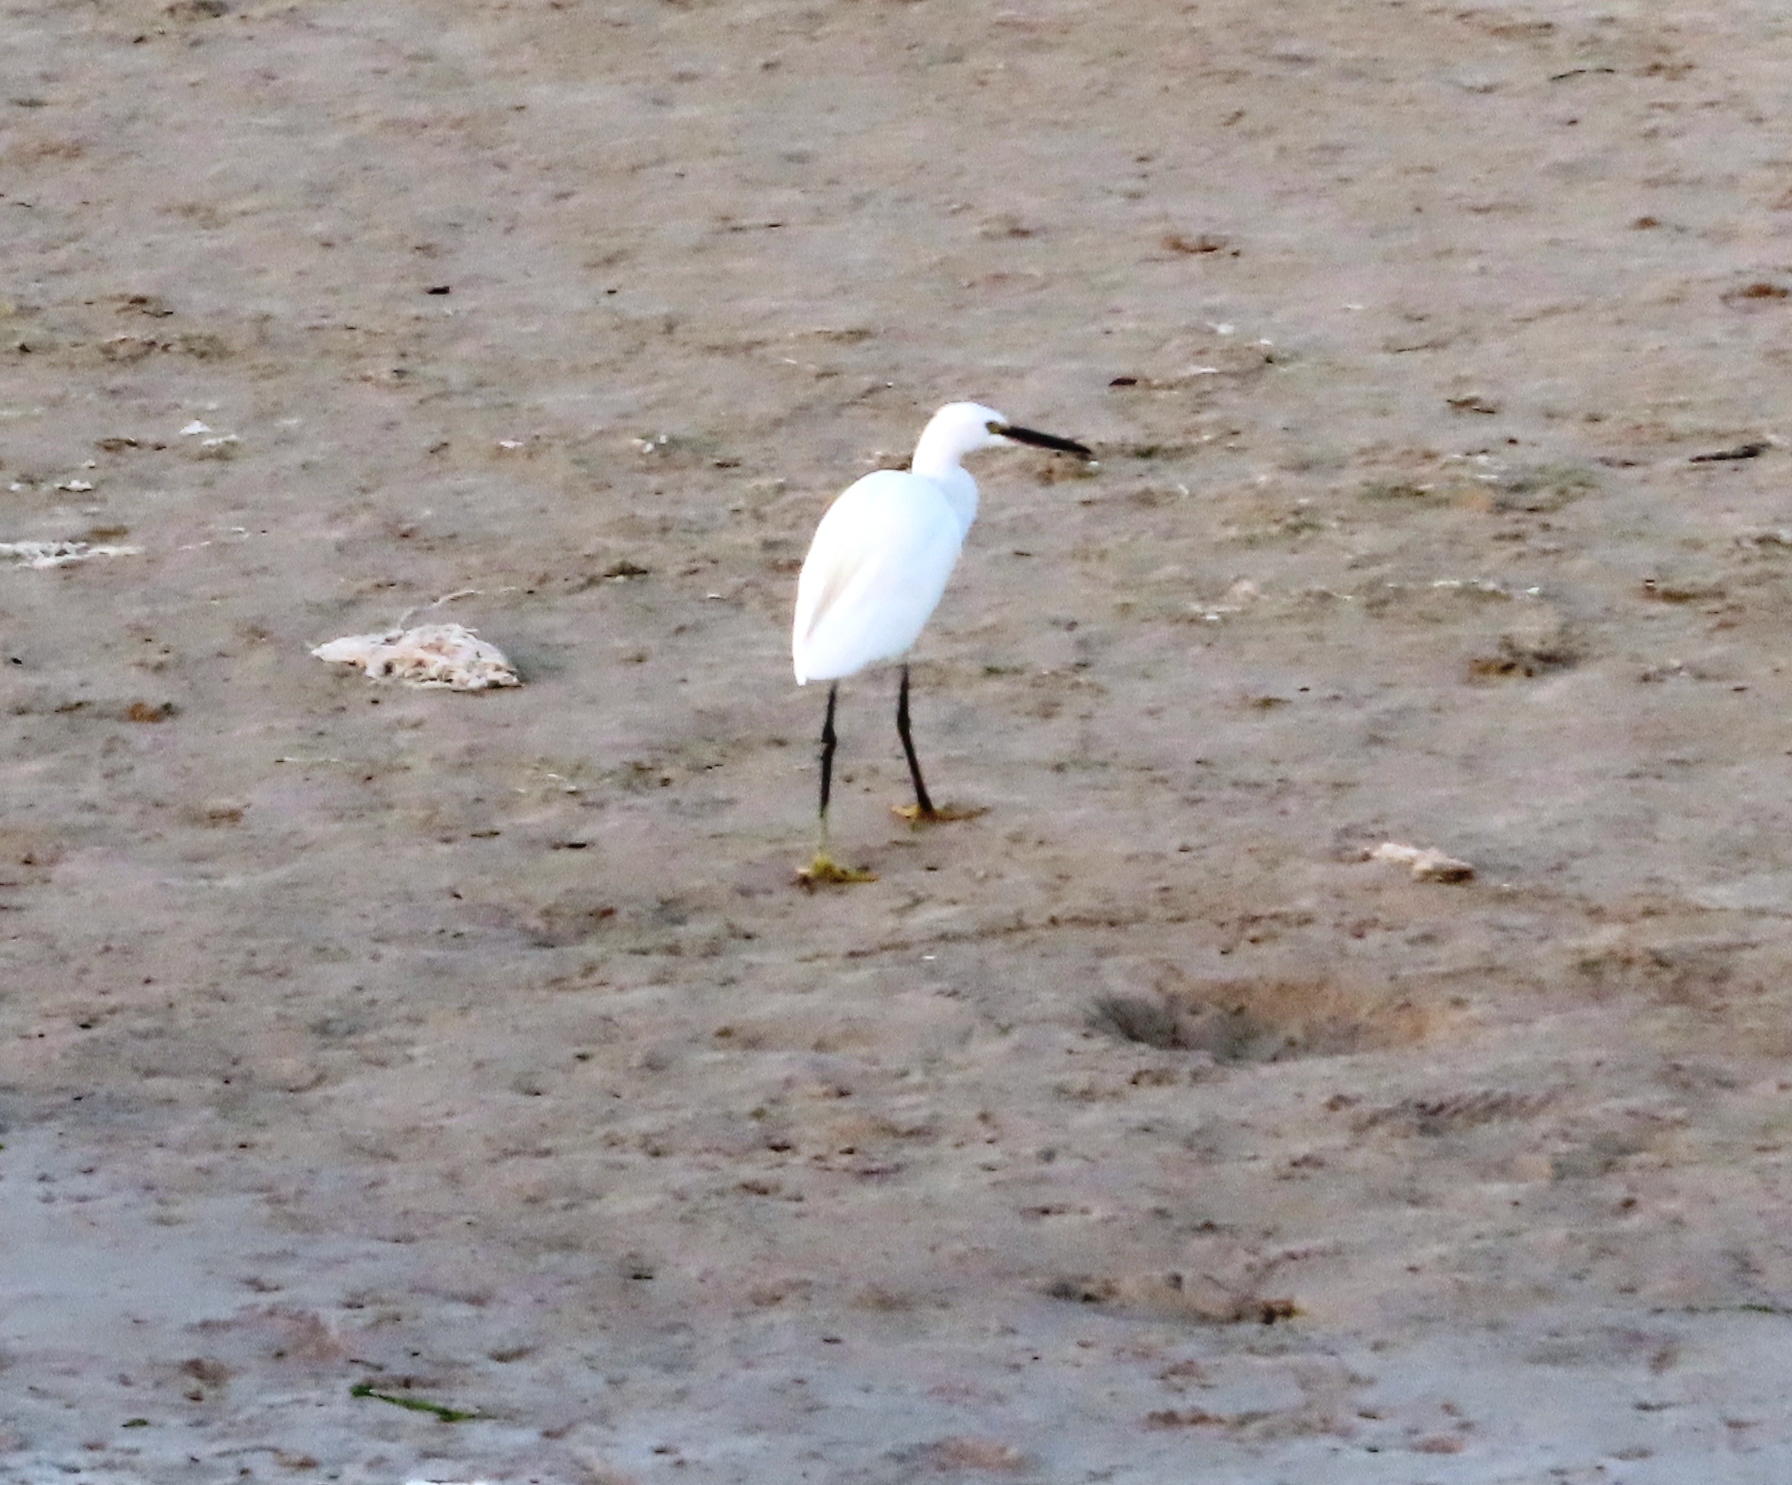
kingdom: Animalia
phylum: Chordata
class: Aves
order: Pelecaniformes
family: Ardeidae
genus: Egretta
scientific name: Egretta garzetta
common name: Little egret
